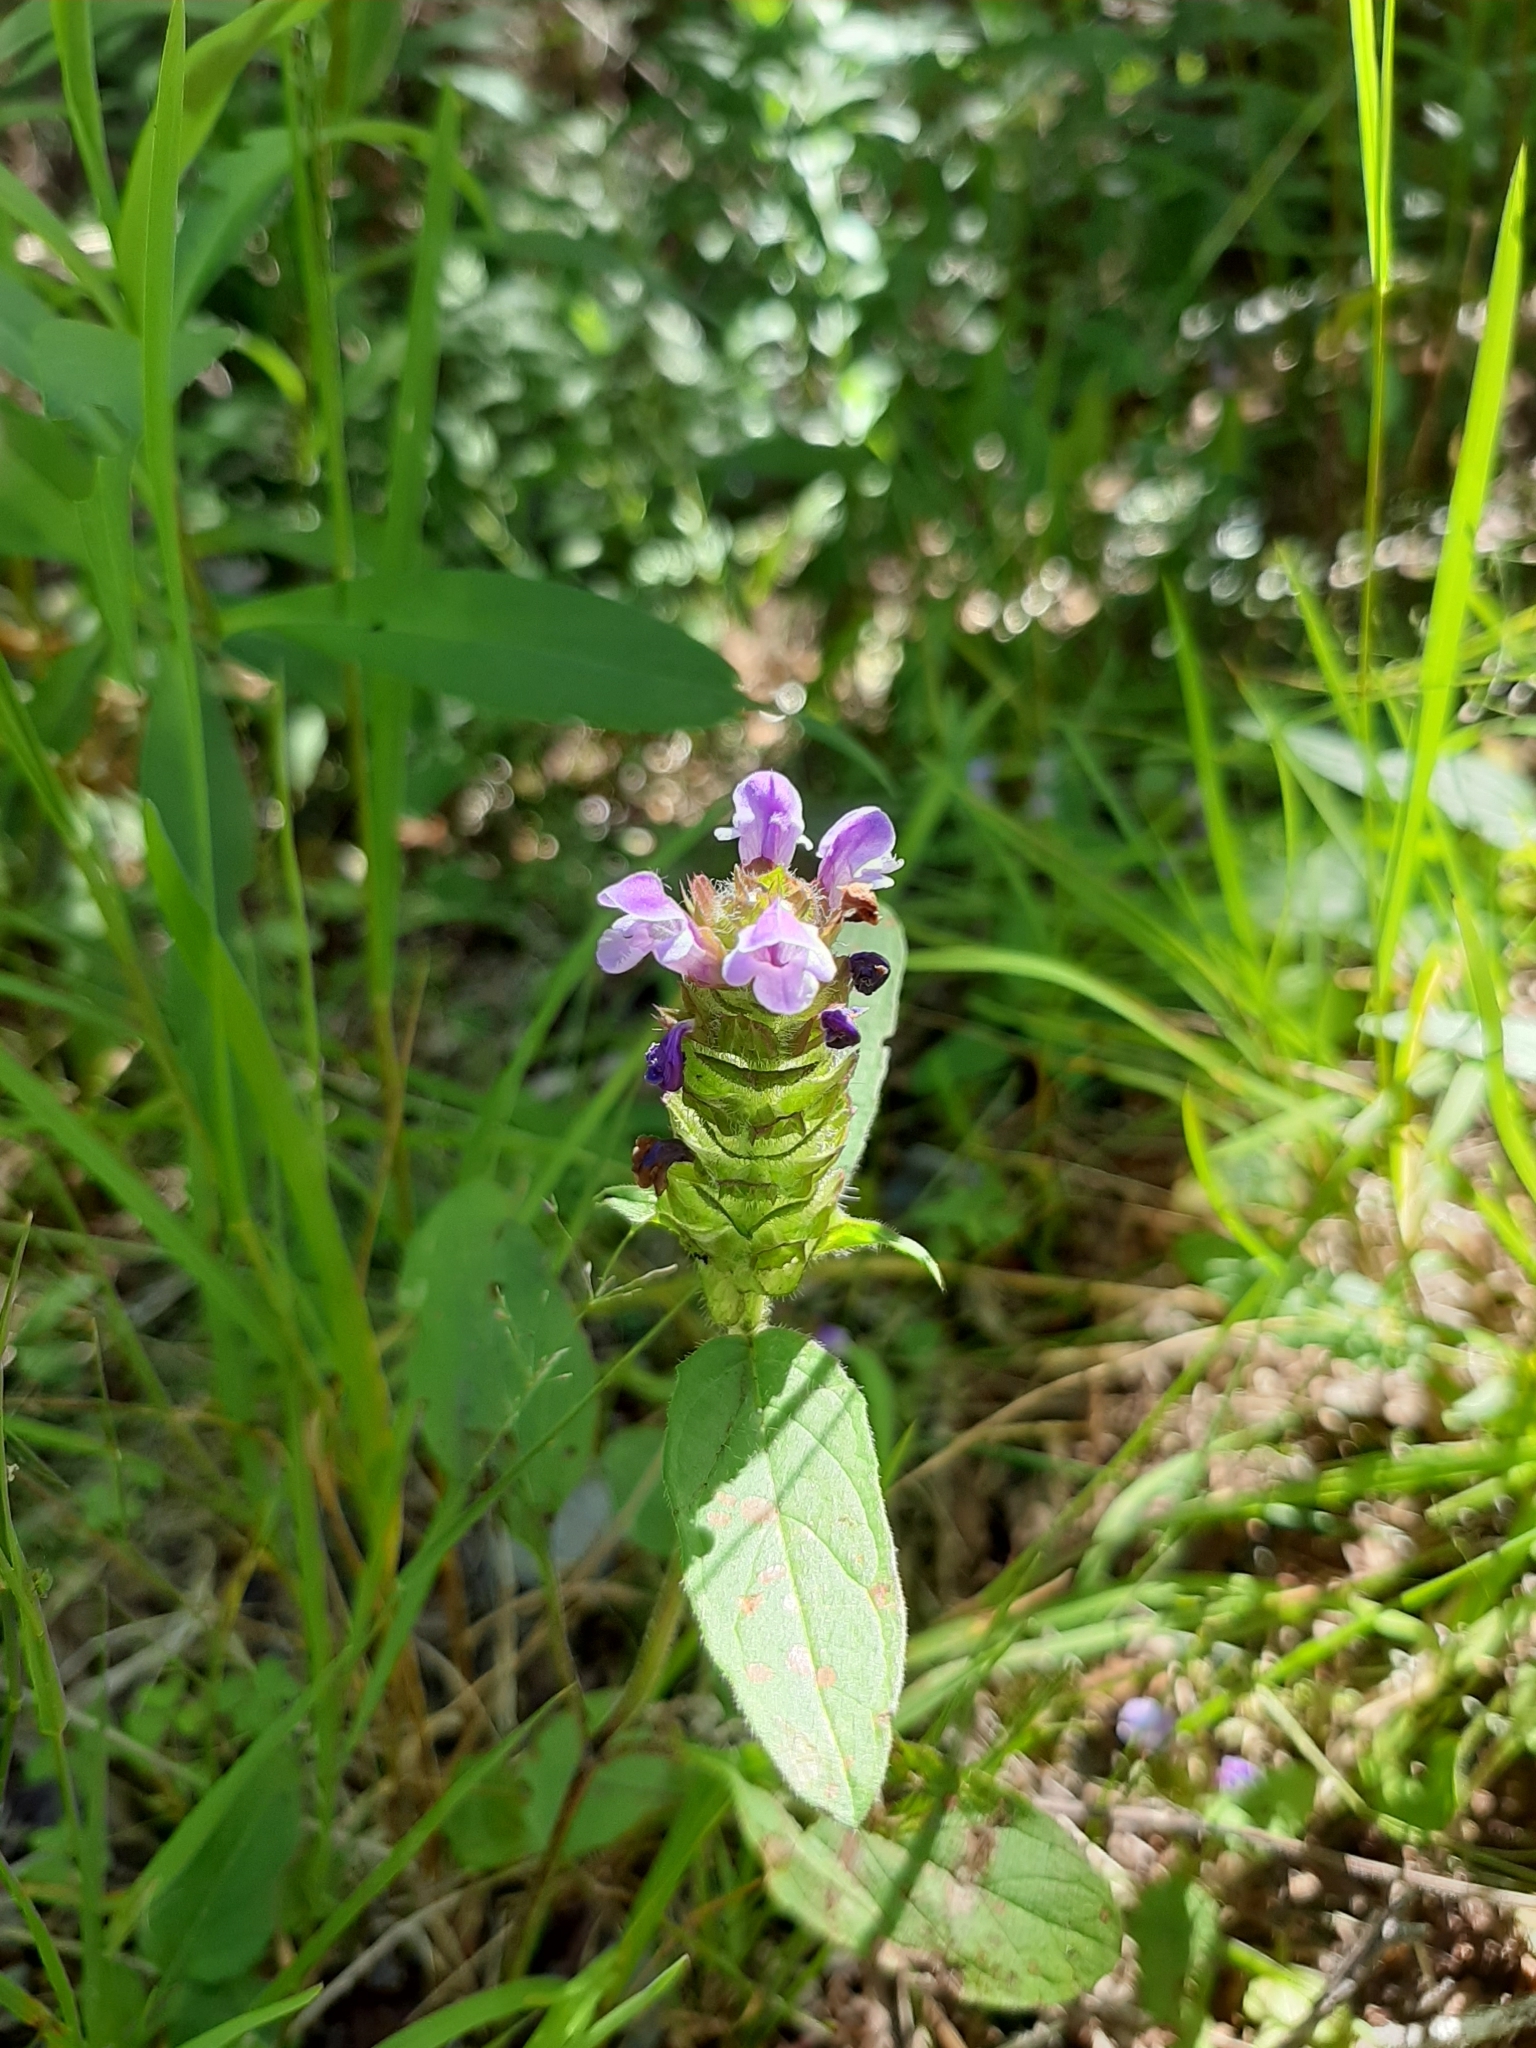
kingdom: Plantae
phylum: Tracheophyta
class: Magnoliopsida
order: Lamiales
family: Lamiaceae
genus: Prunella
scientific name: Prunella vulgaris
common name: Heal-all
